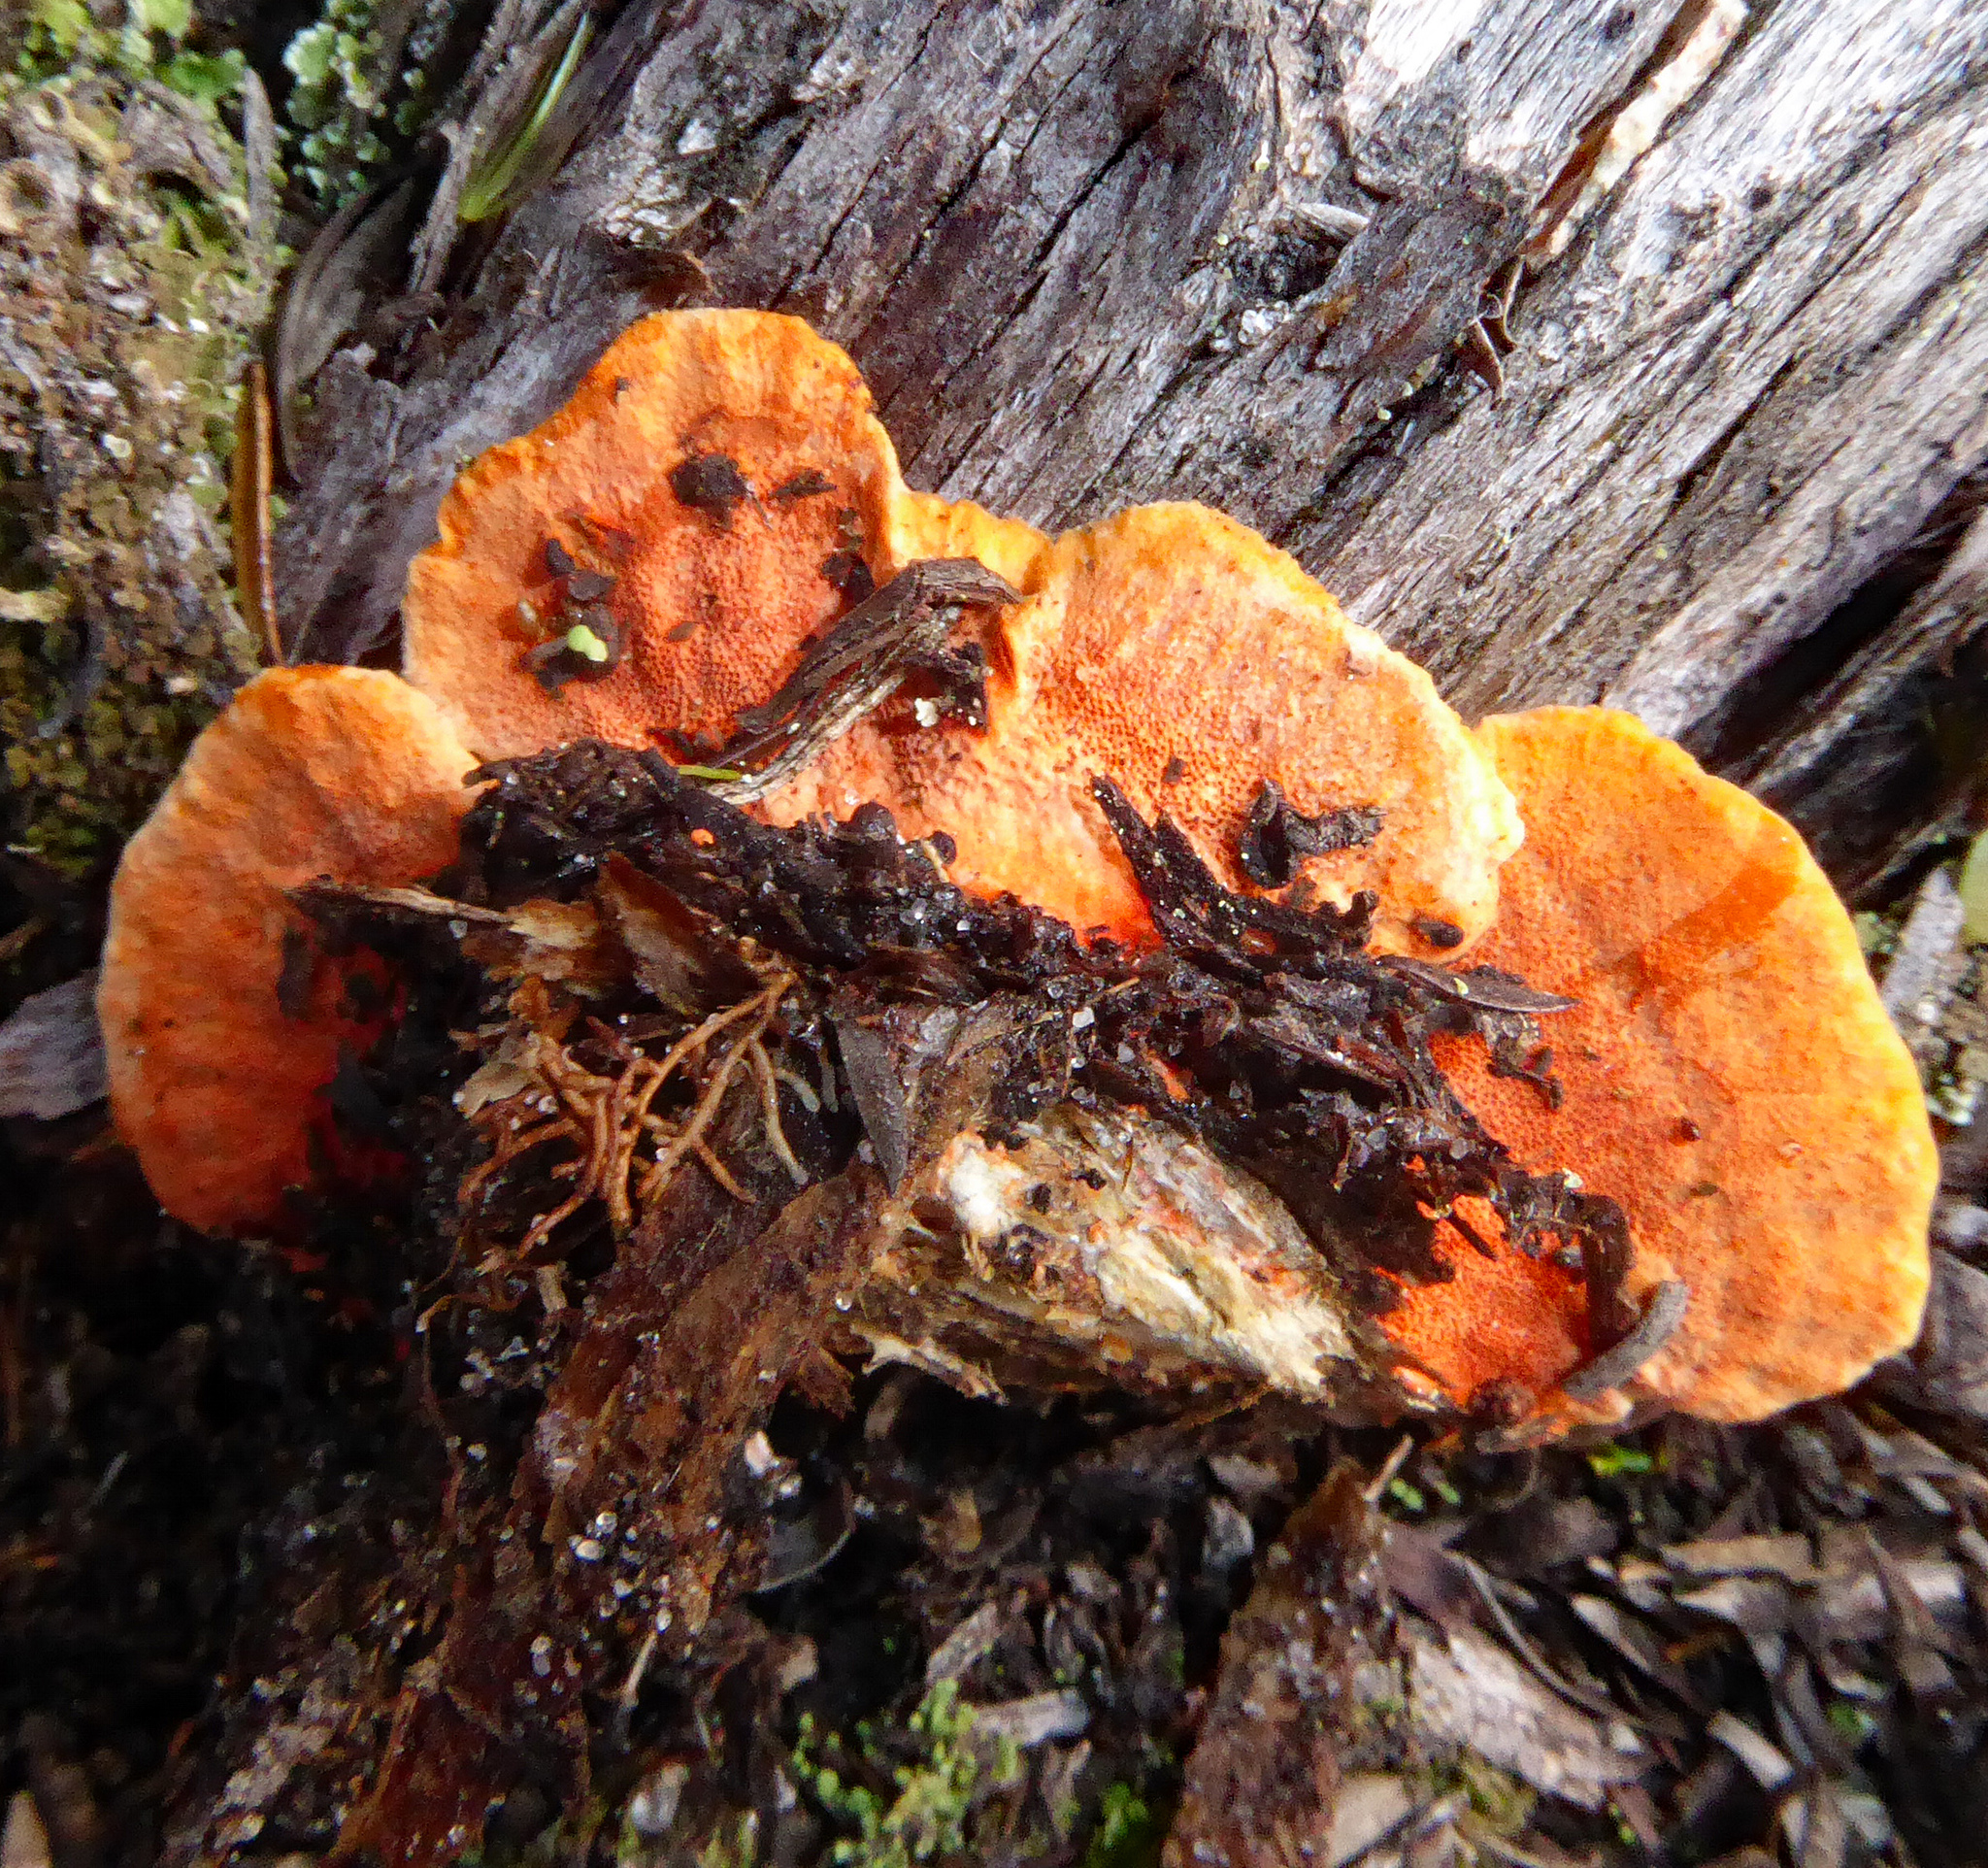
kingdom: Fungi
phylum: Basidiomycota
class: Agaricomycetes
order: Polyporales
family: Polyporaceae
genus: Trametes
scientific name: Trametes coccinea
